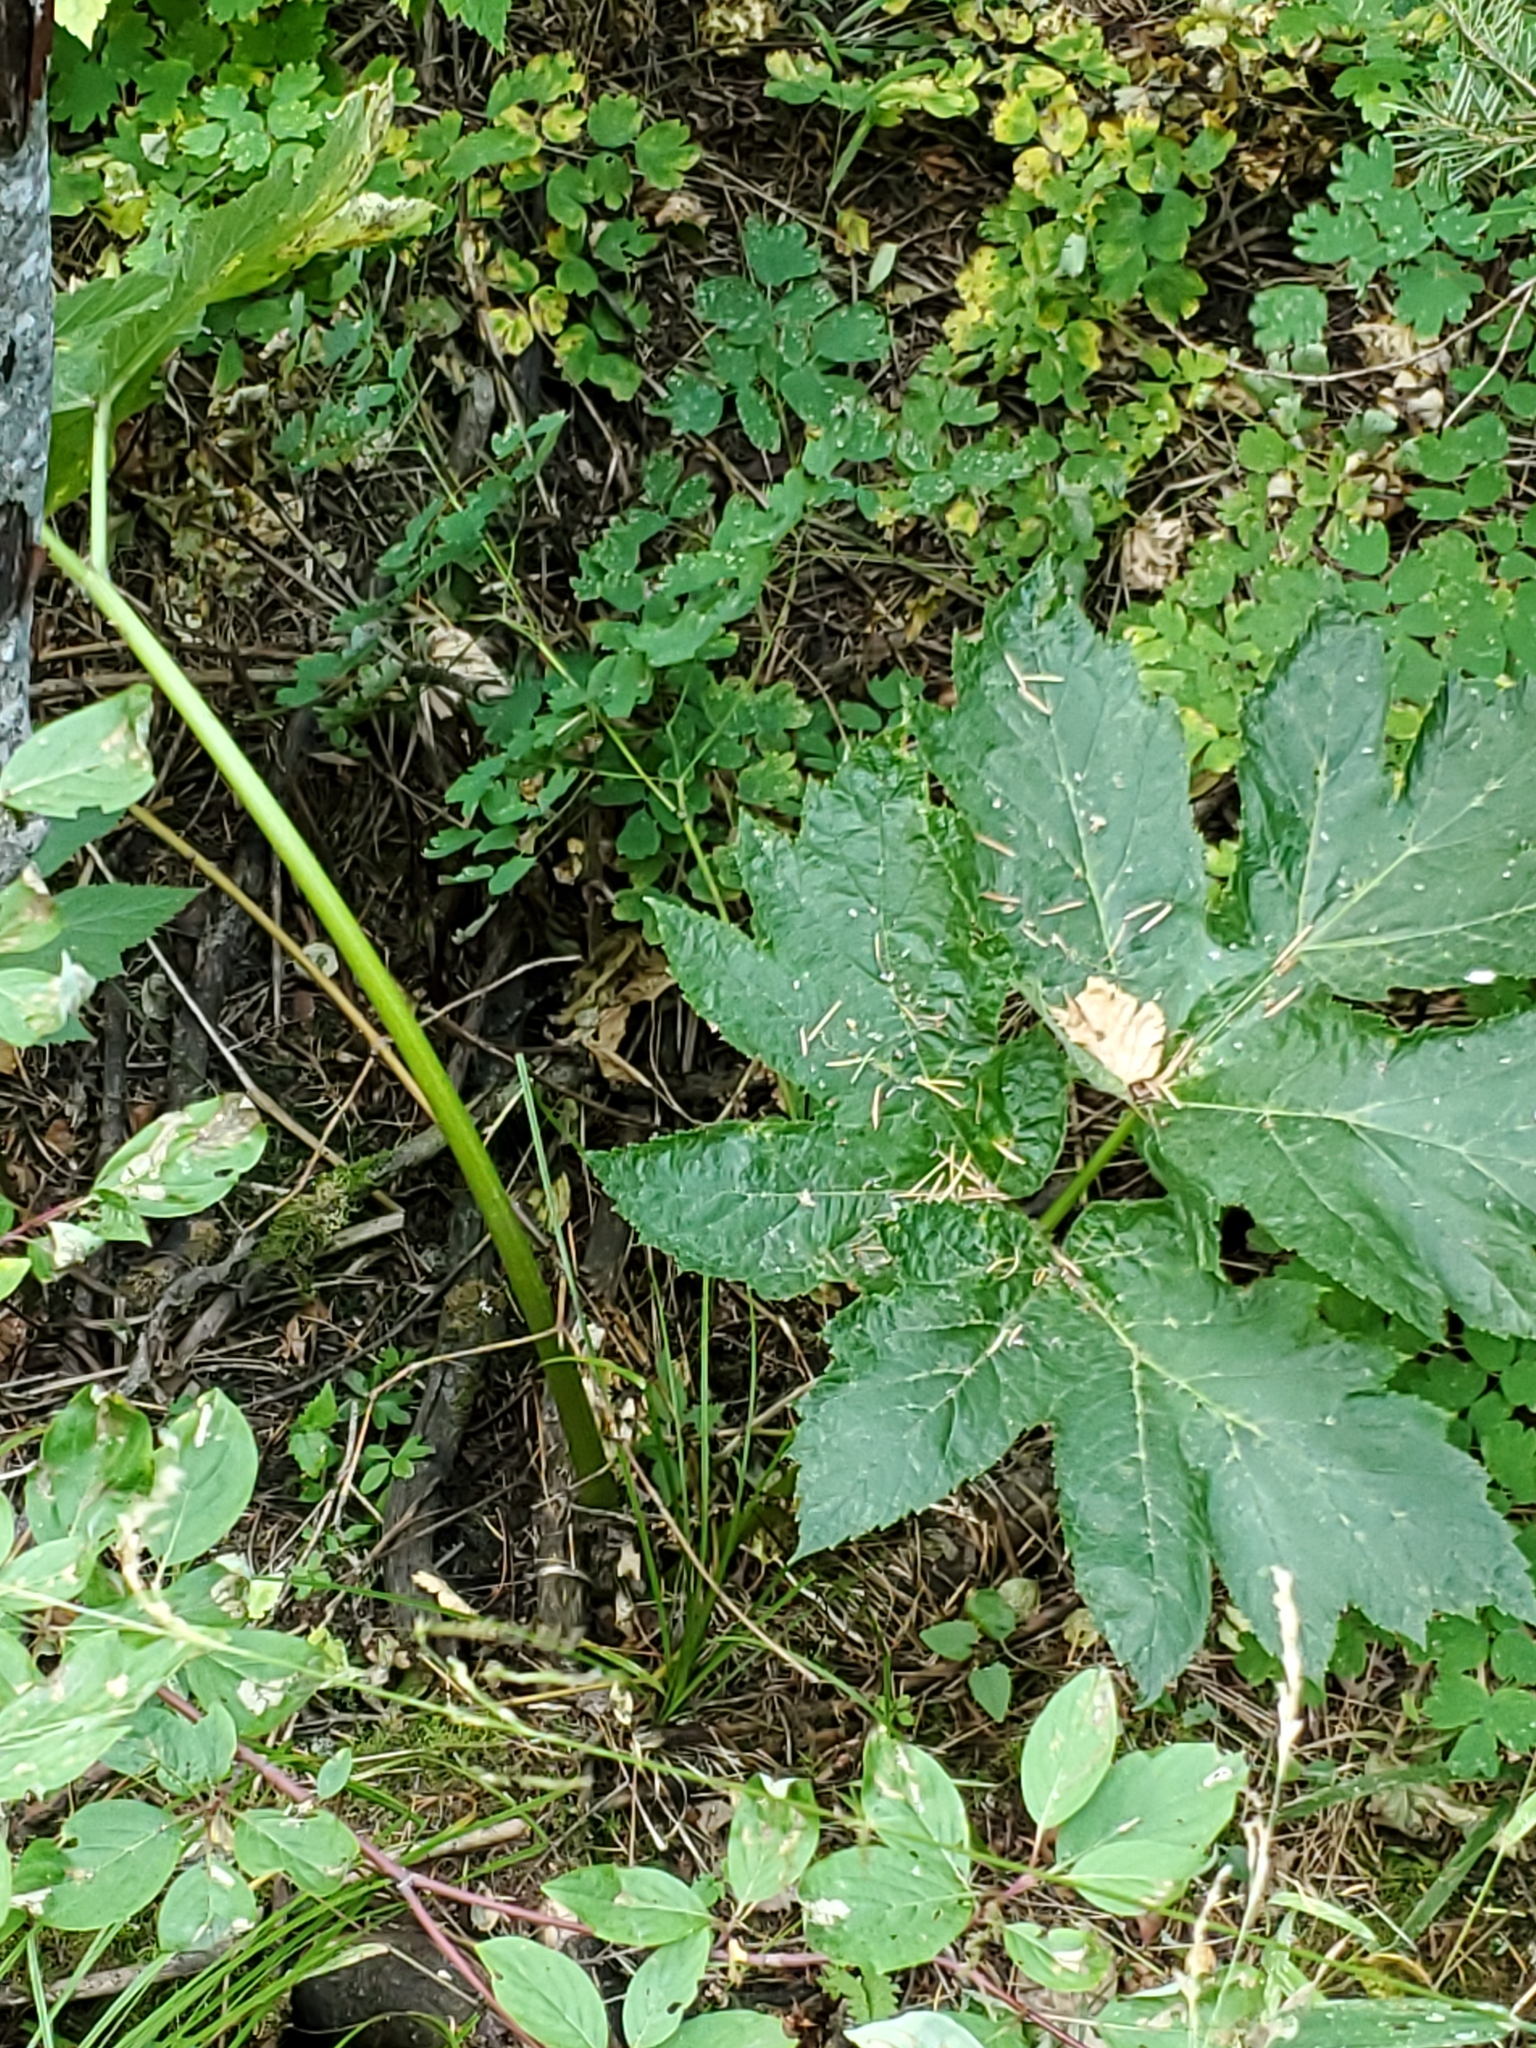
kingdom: Plantae
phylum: Tracheophyta
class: Magnoliopsida
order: Apiales
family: Apiaceae
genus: Heracleum
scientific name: Heracleum maximum
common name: American cow parsnip
